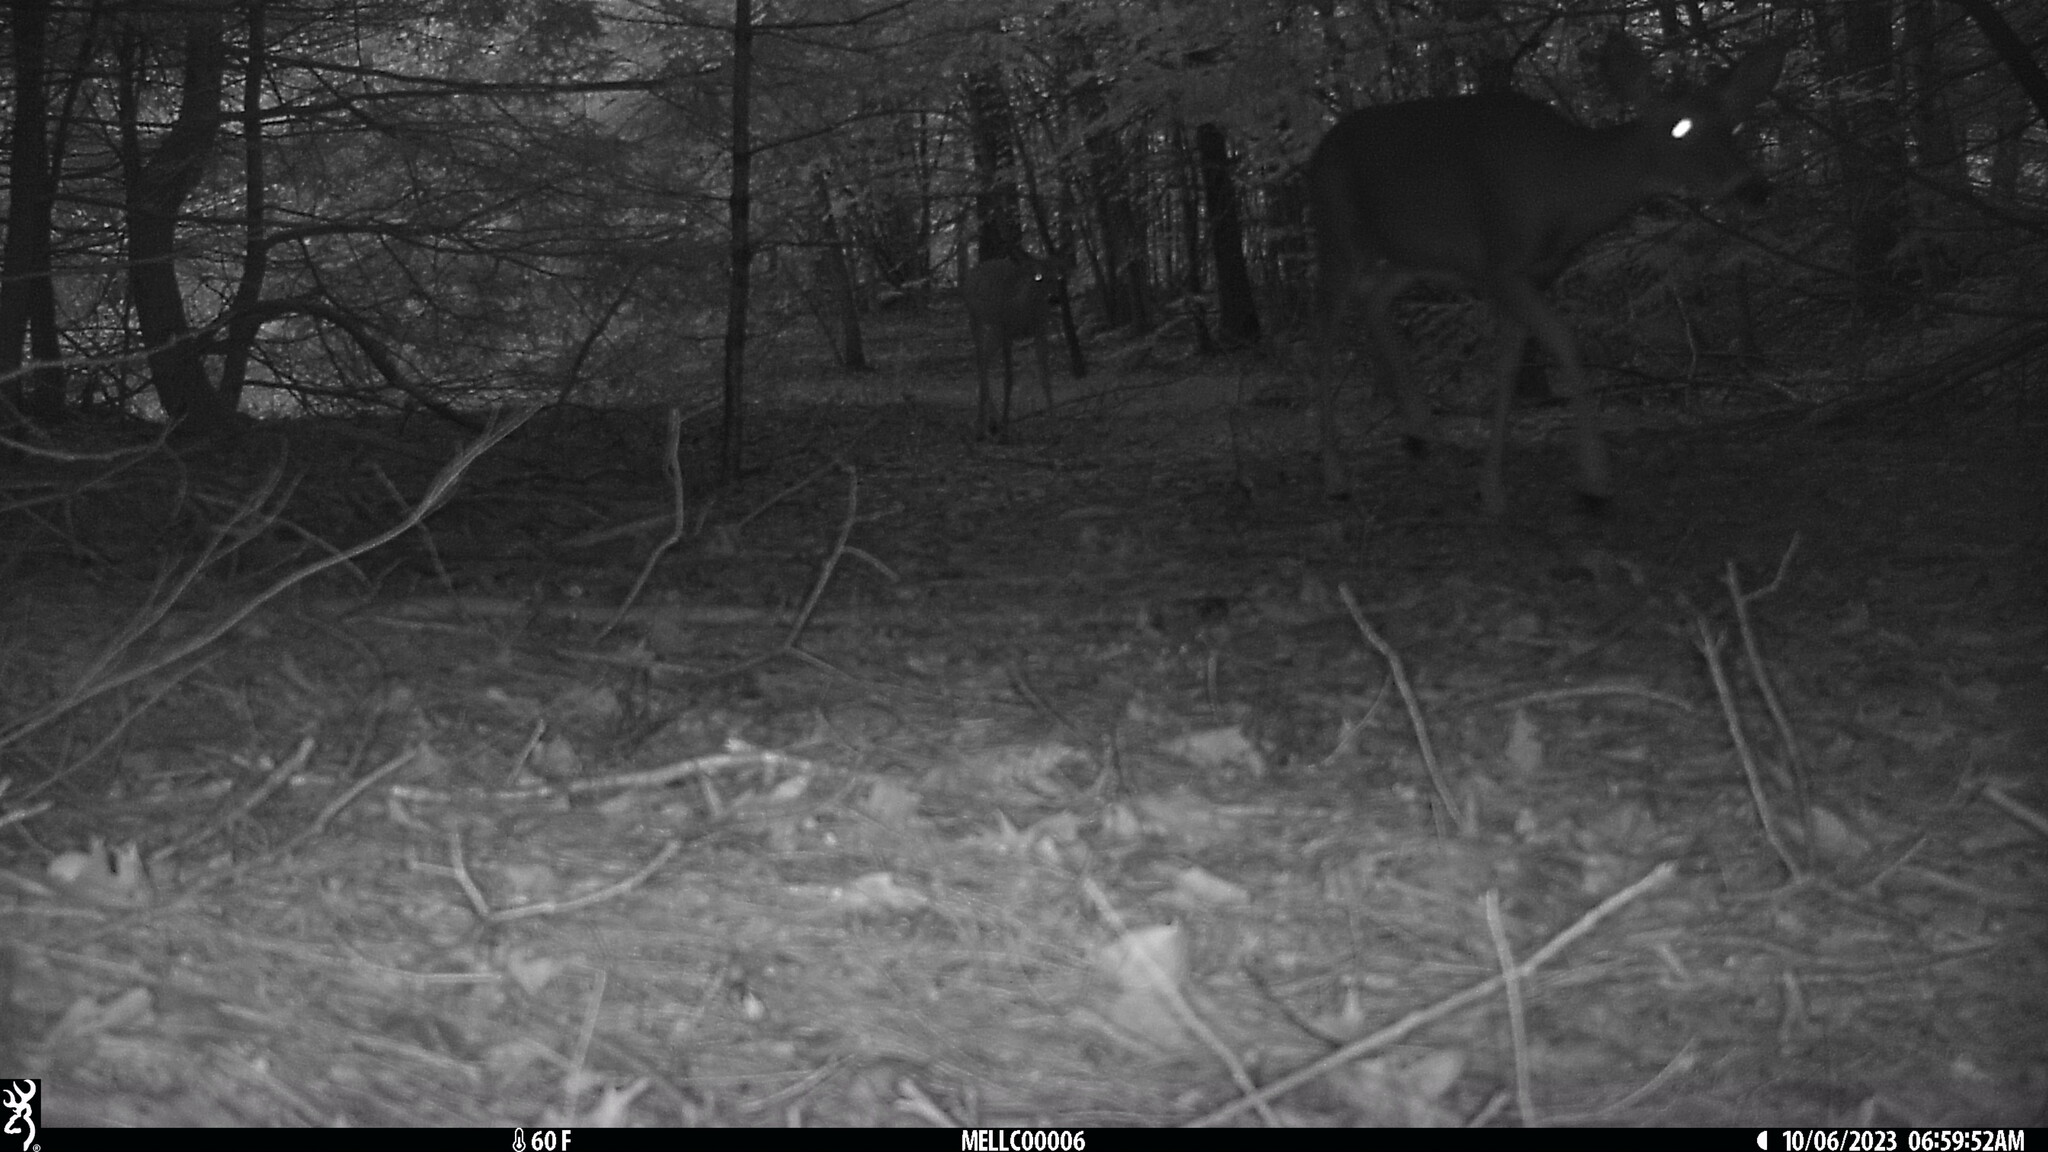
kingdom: Animalia
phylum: Chordata
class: Mammalia
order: Artiodactyla
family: Cervidae
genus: Odocoileus
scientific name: Odocoileus virginianus
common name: White-tailed deer
